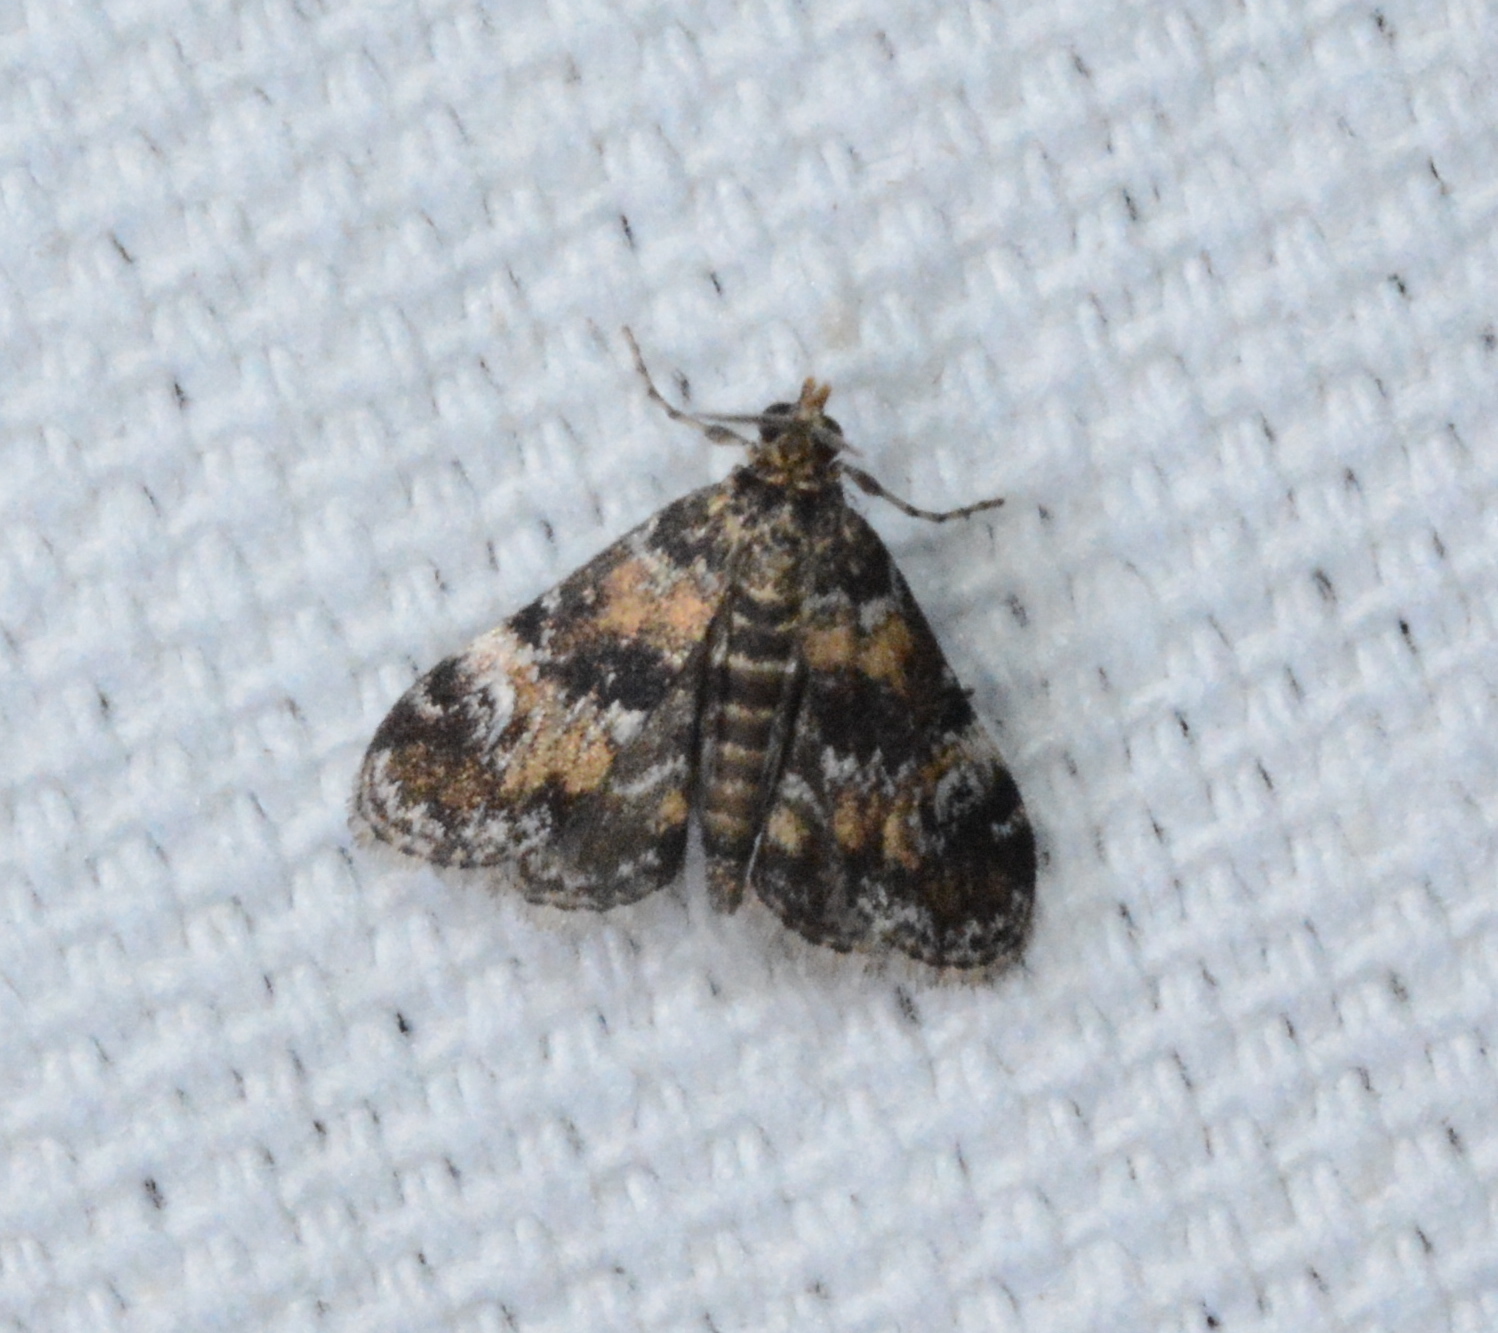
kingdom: Animalia
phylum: Arthropoda
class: Insecta
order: Lepidoptera
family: Crambidae
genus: Elophila
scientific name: Elophila obliteralis
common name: Waterlily leafcutter moth
